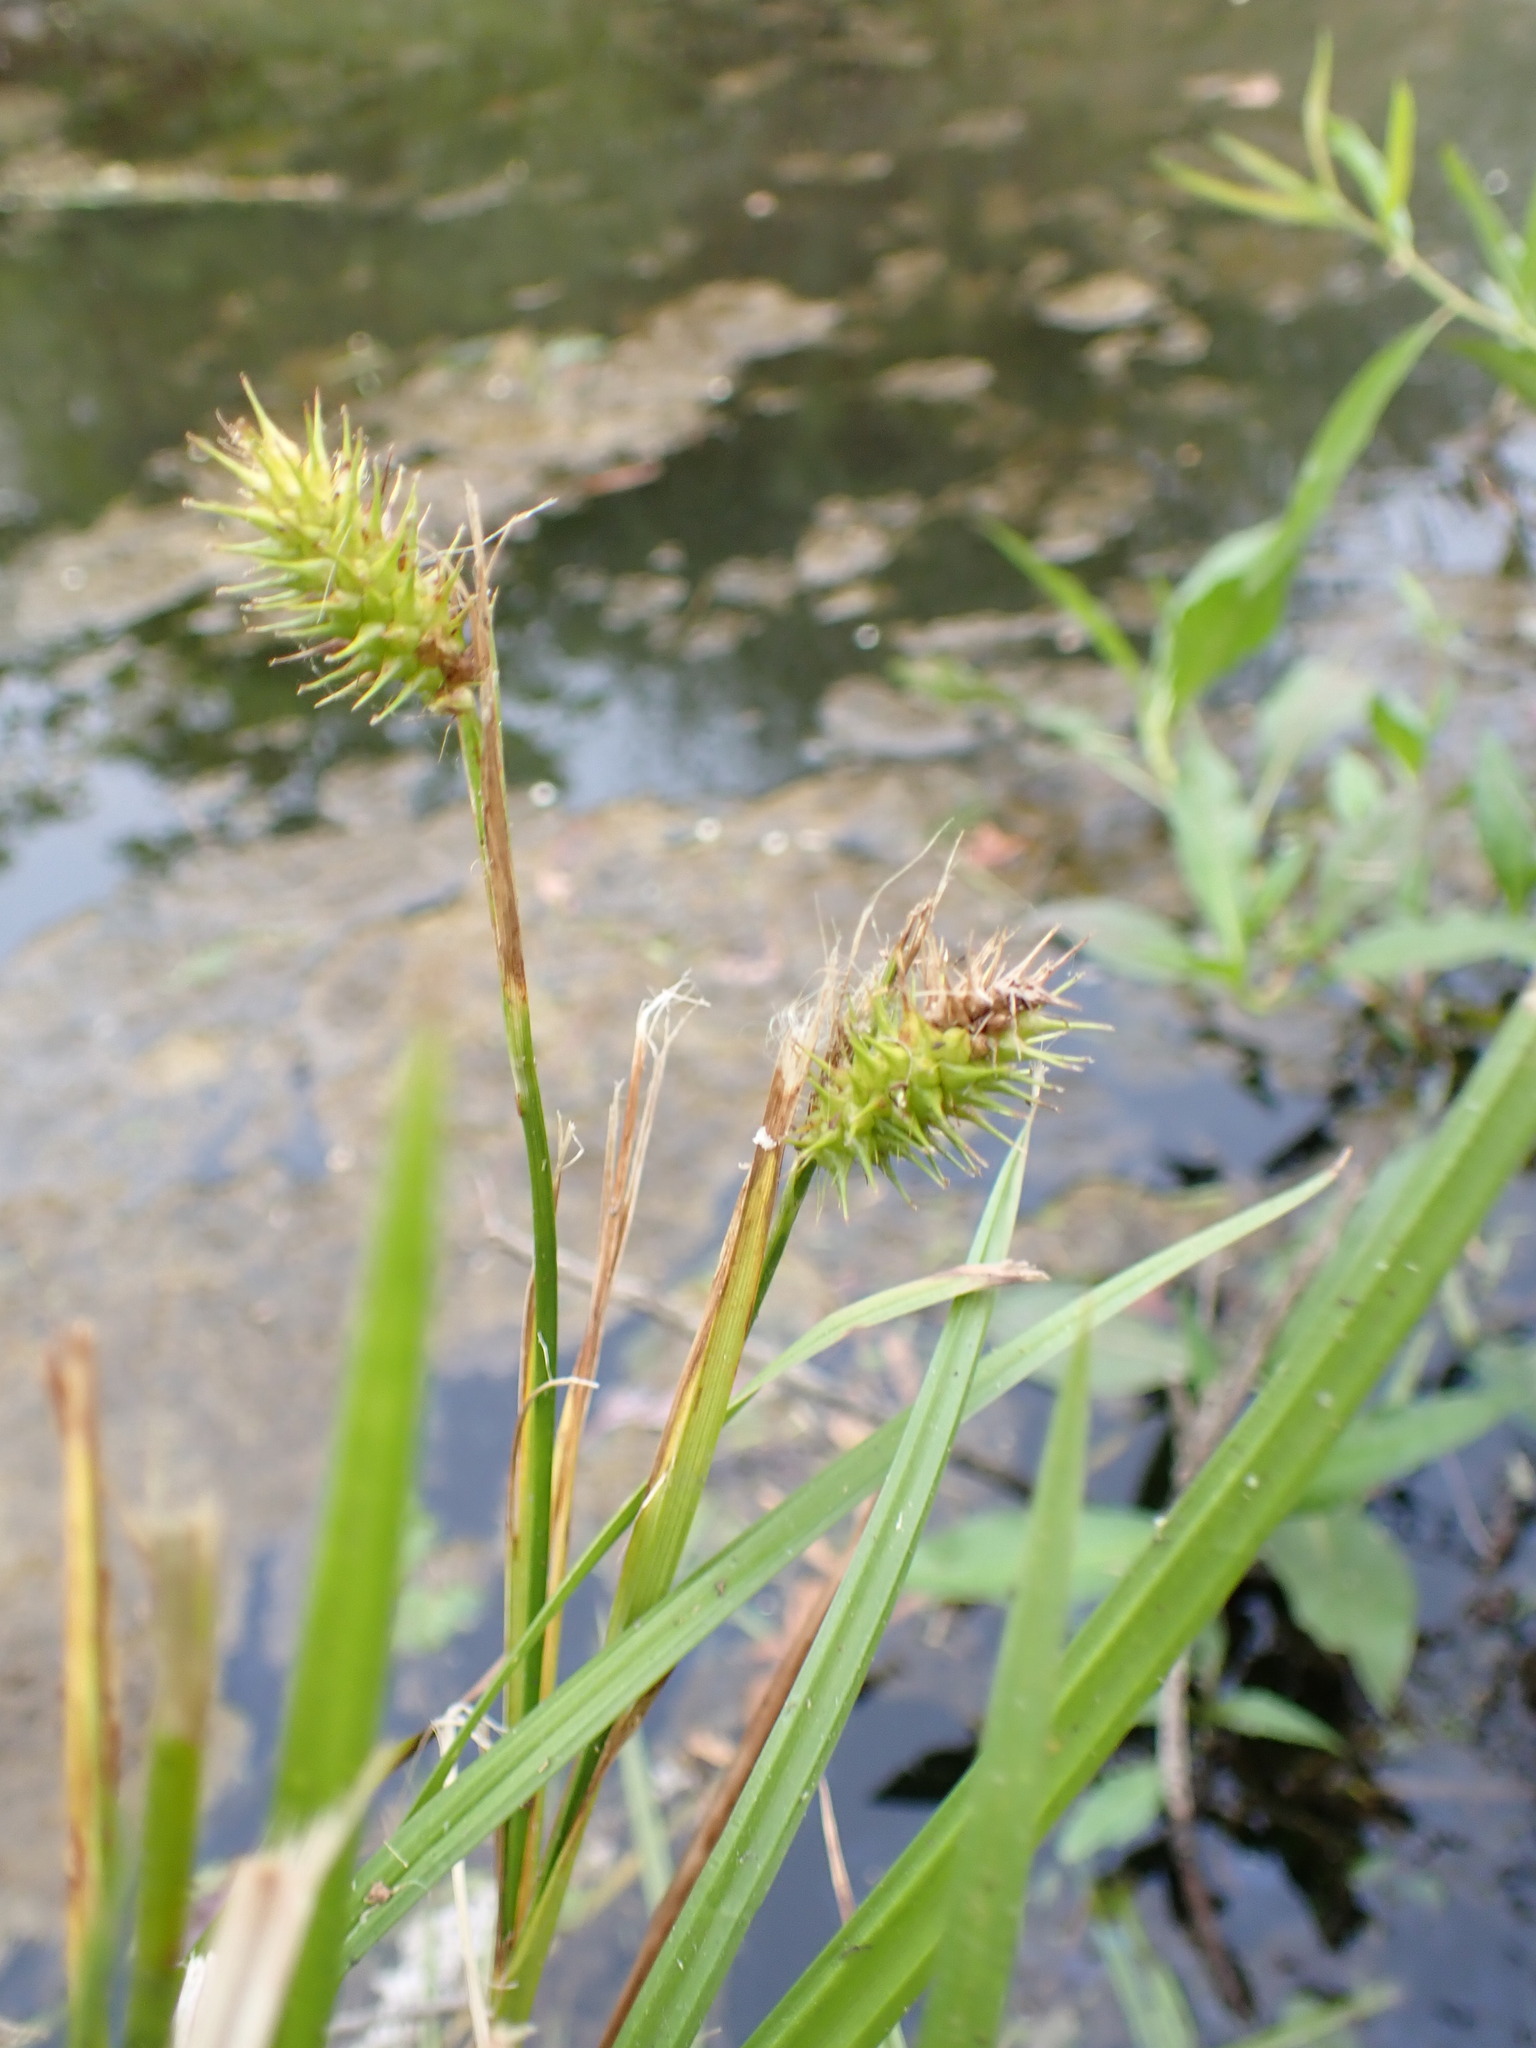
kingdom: Plantae
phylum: Tracheophyta
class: Liliopsida
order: Poales
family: Cyperaceae
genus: Carex
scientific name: Carex lurida
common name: Sallow sedge
